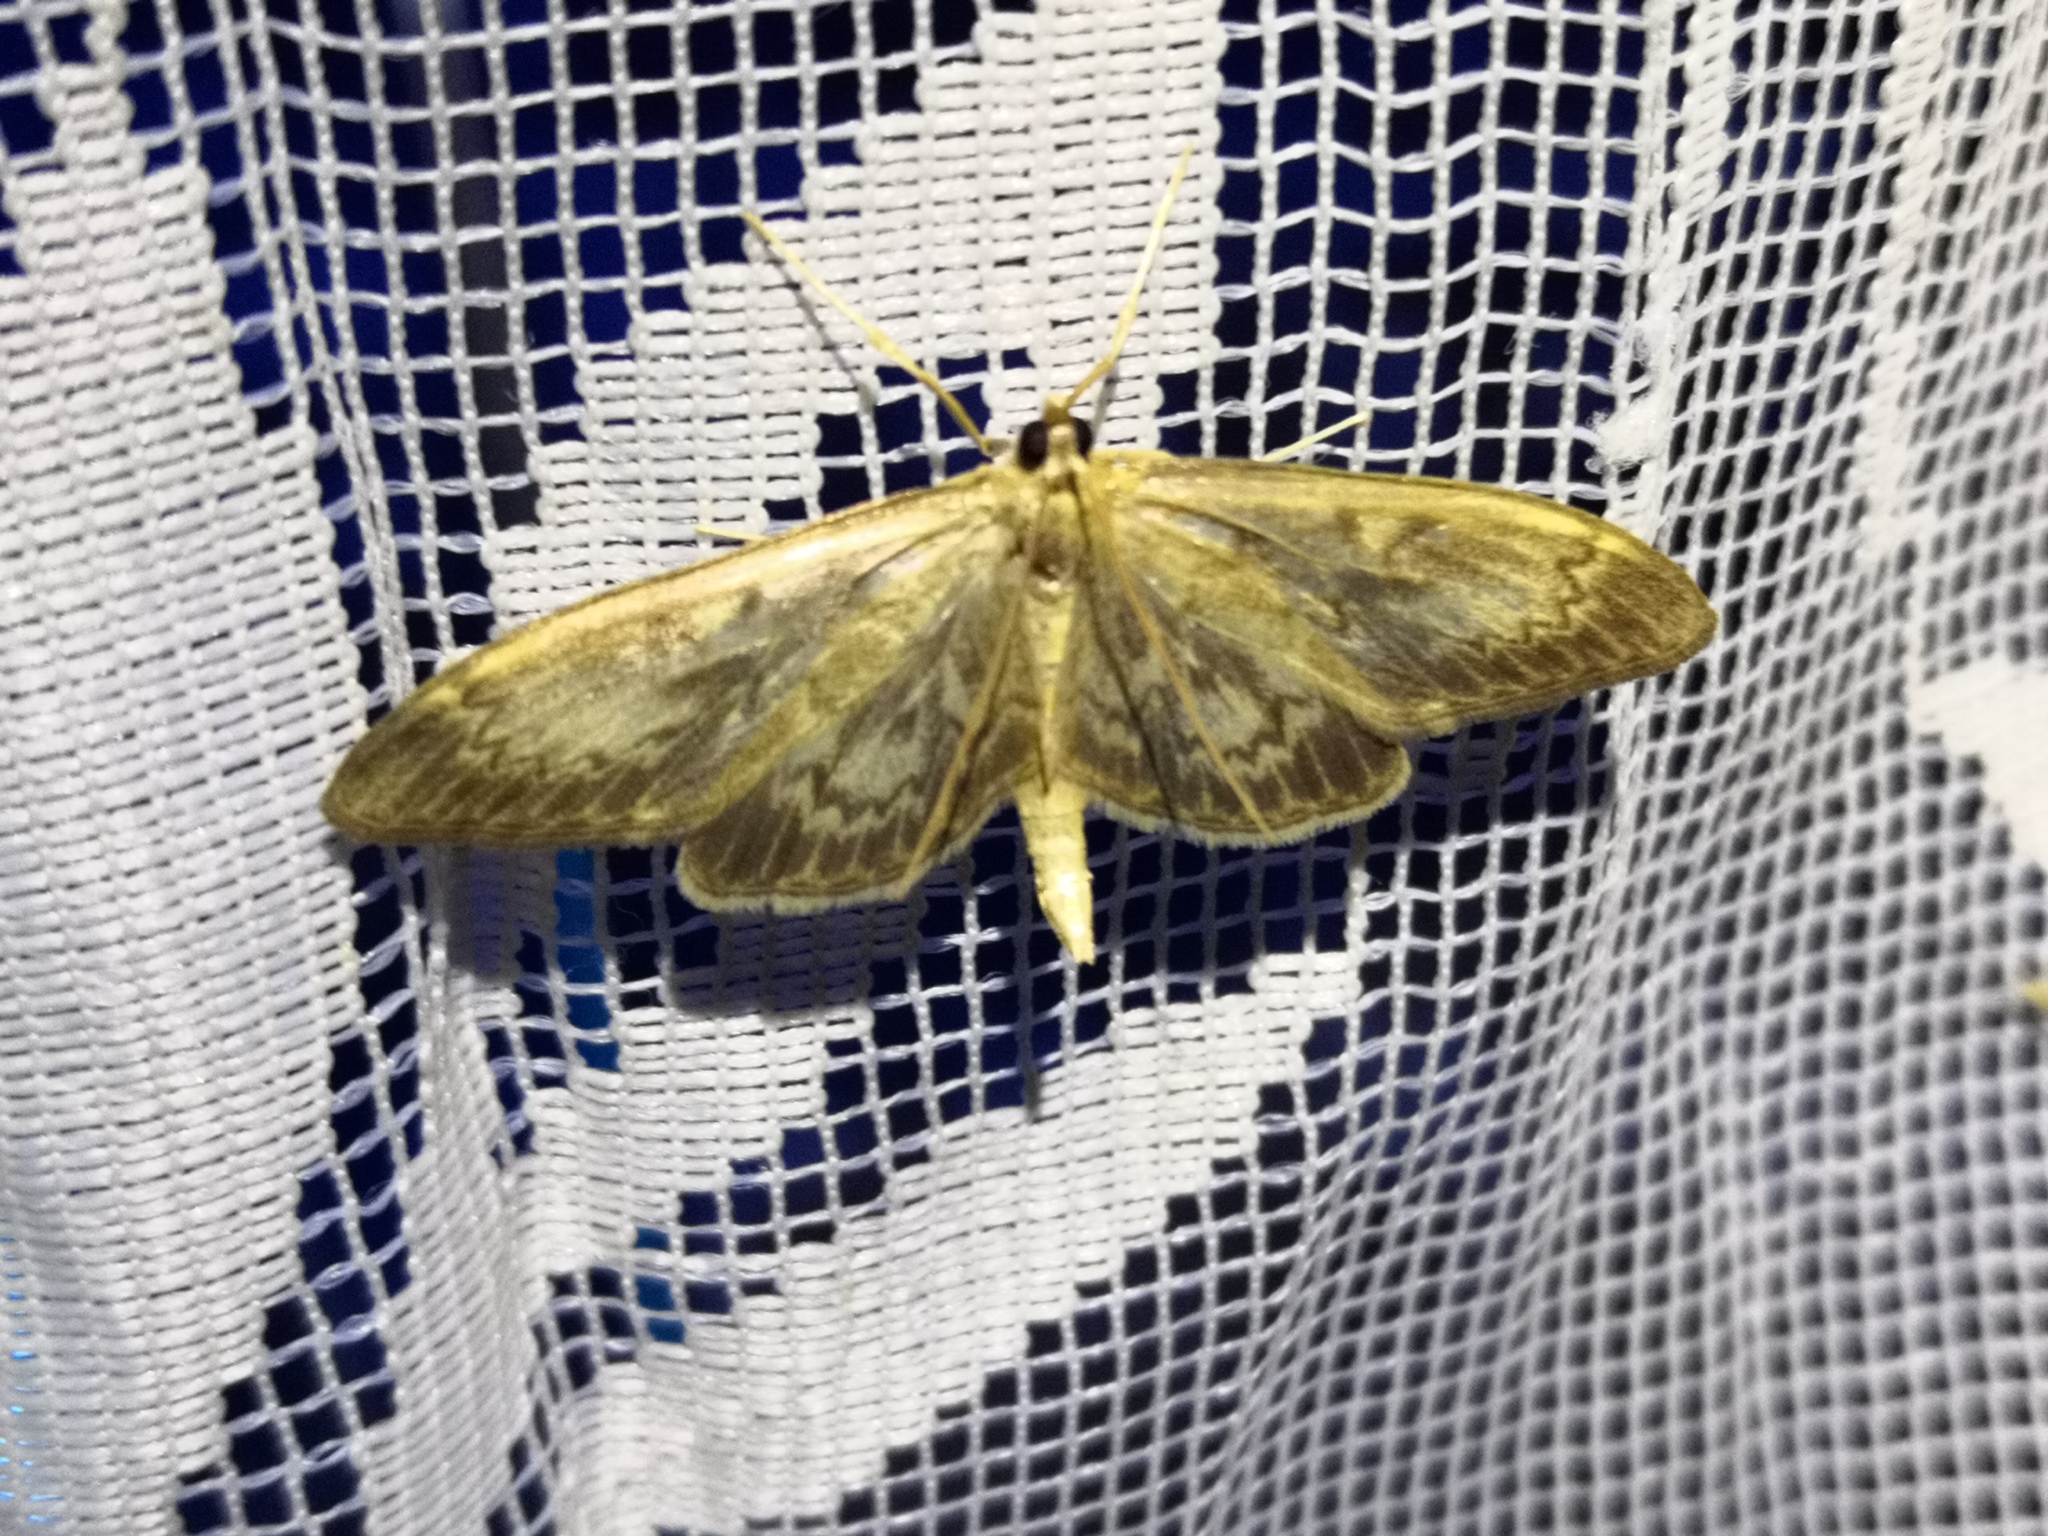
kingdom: Animalia
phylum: Arthropoda
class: Insecta
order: Lepidoptera
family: Crambidae
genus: Anania
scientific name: Anania lancealis
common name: Long-winged pearl
